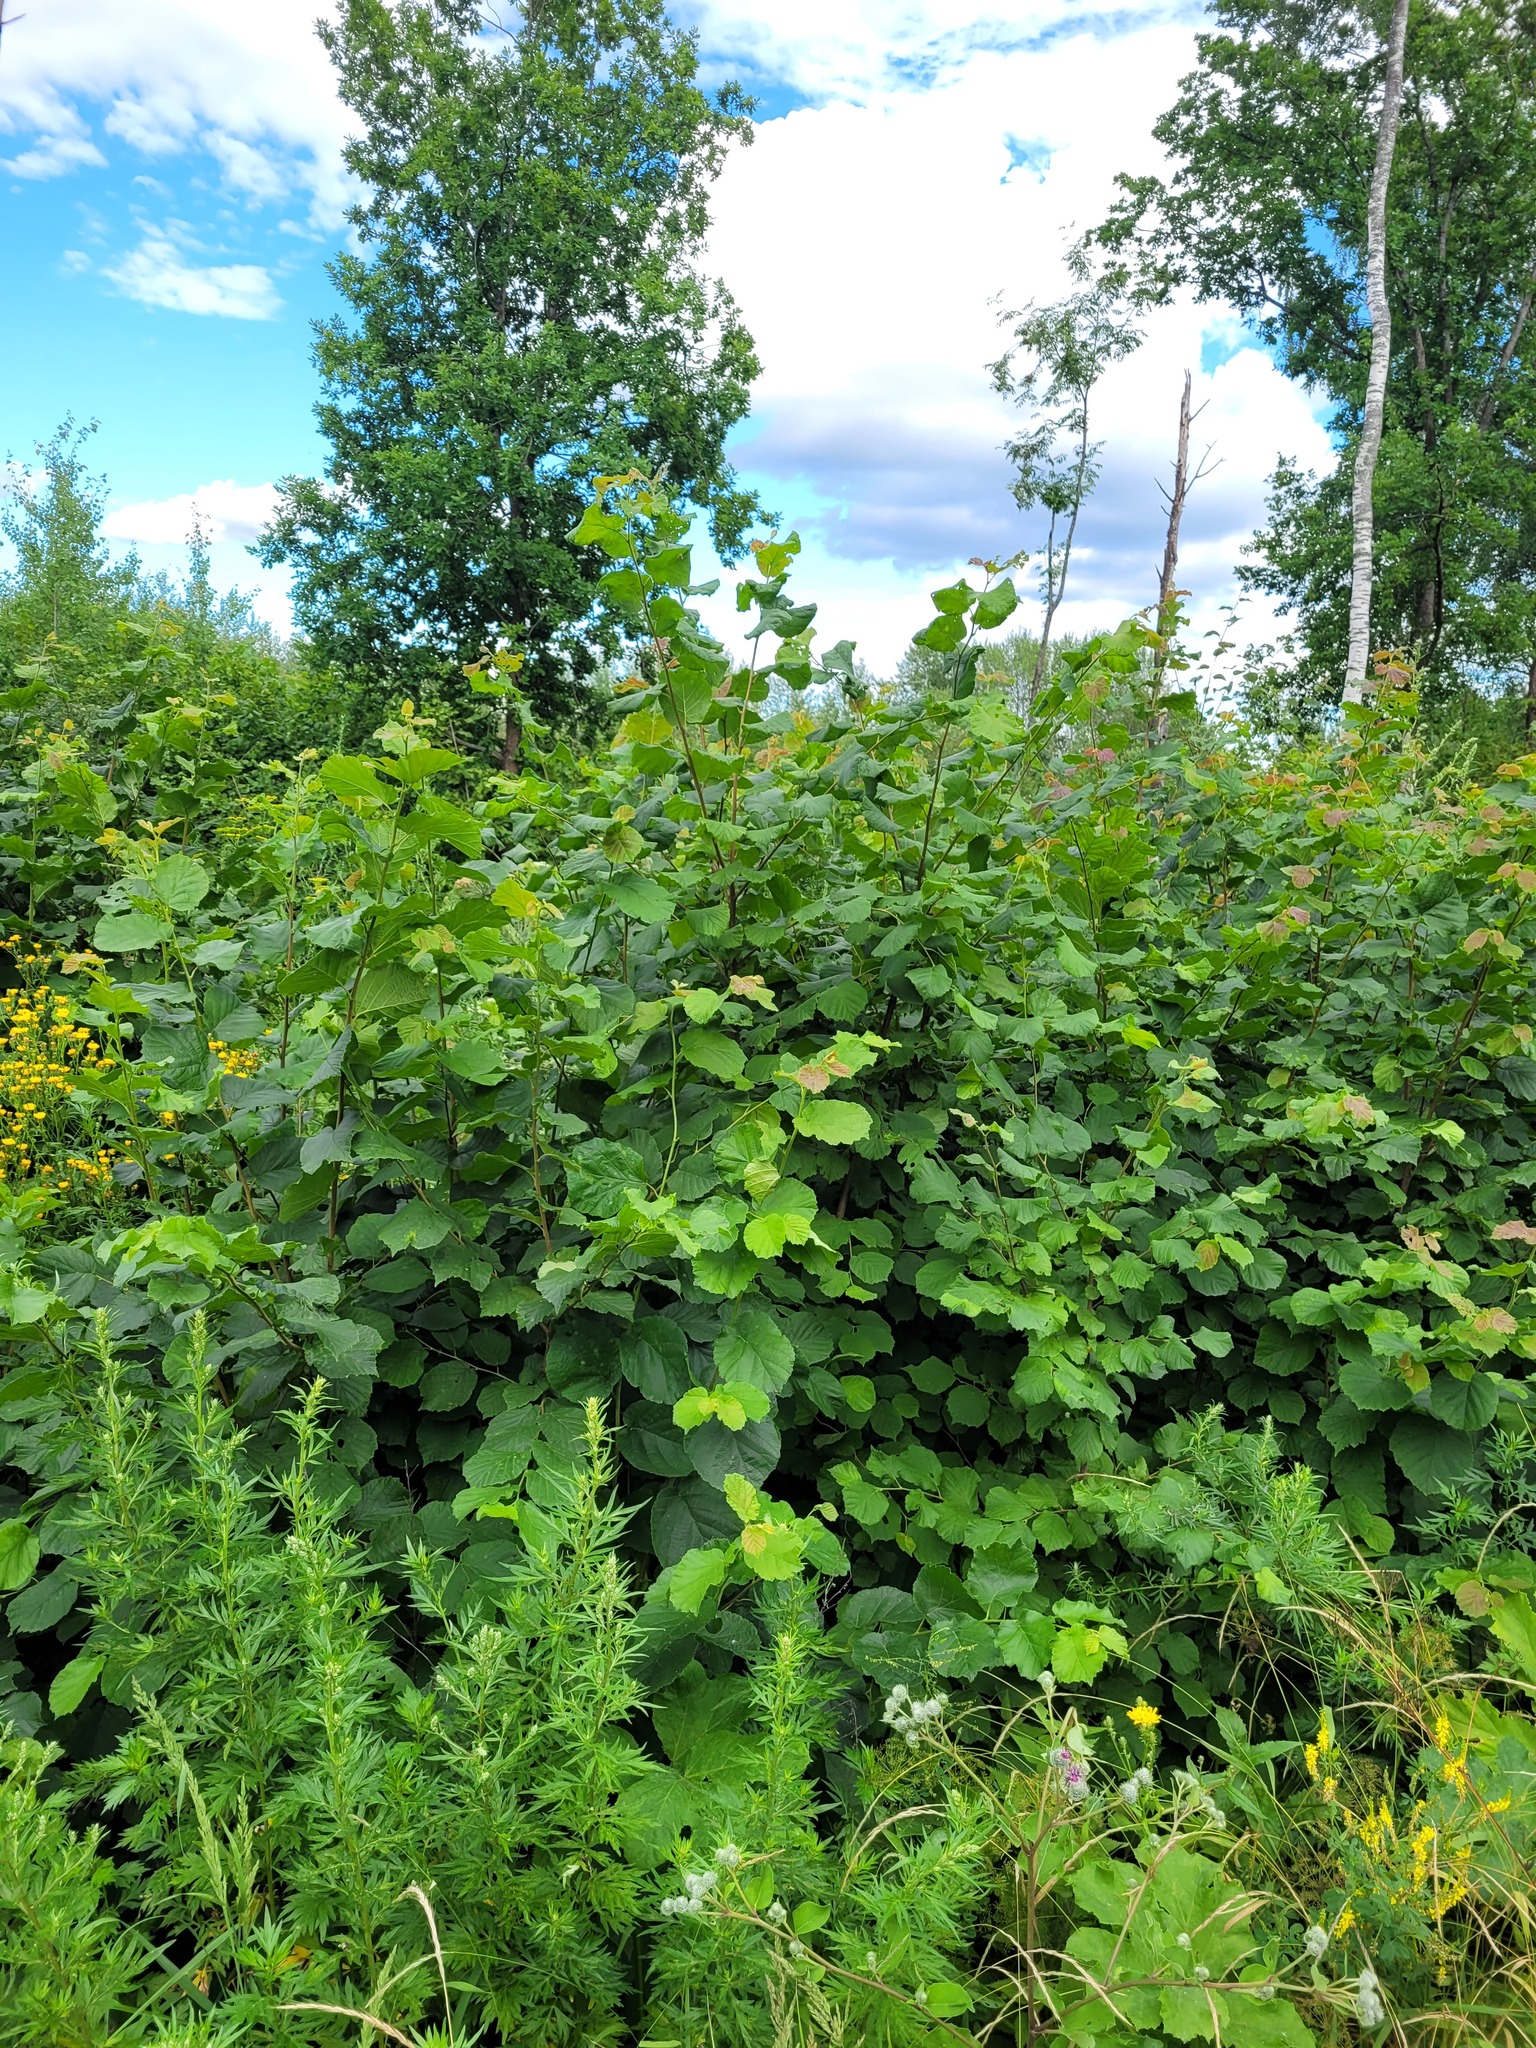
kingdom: Plantae
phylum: Tracheophyta
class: Magnoliopsida
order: Fagales
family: Betulaceae
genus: Corylus
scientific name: Corylus avellana
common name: European hazel
